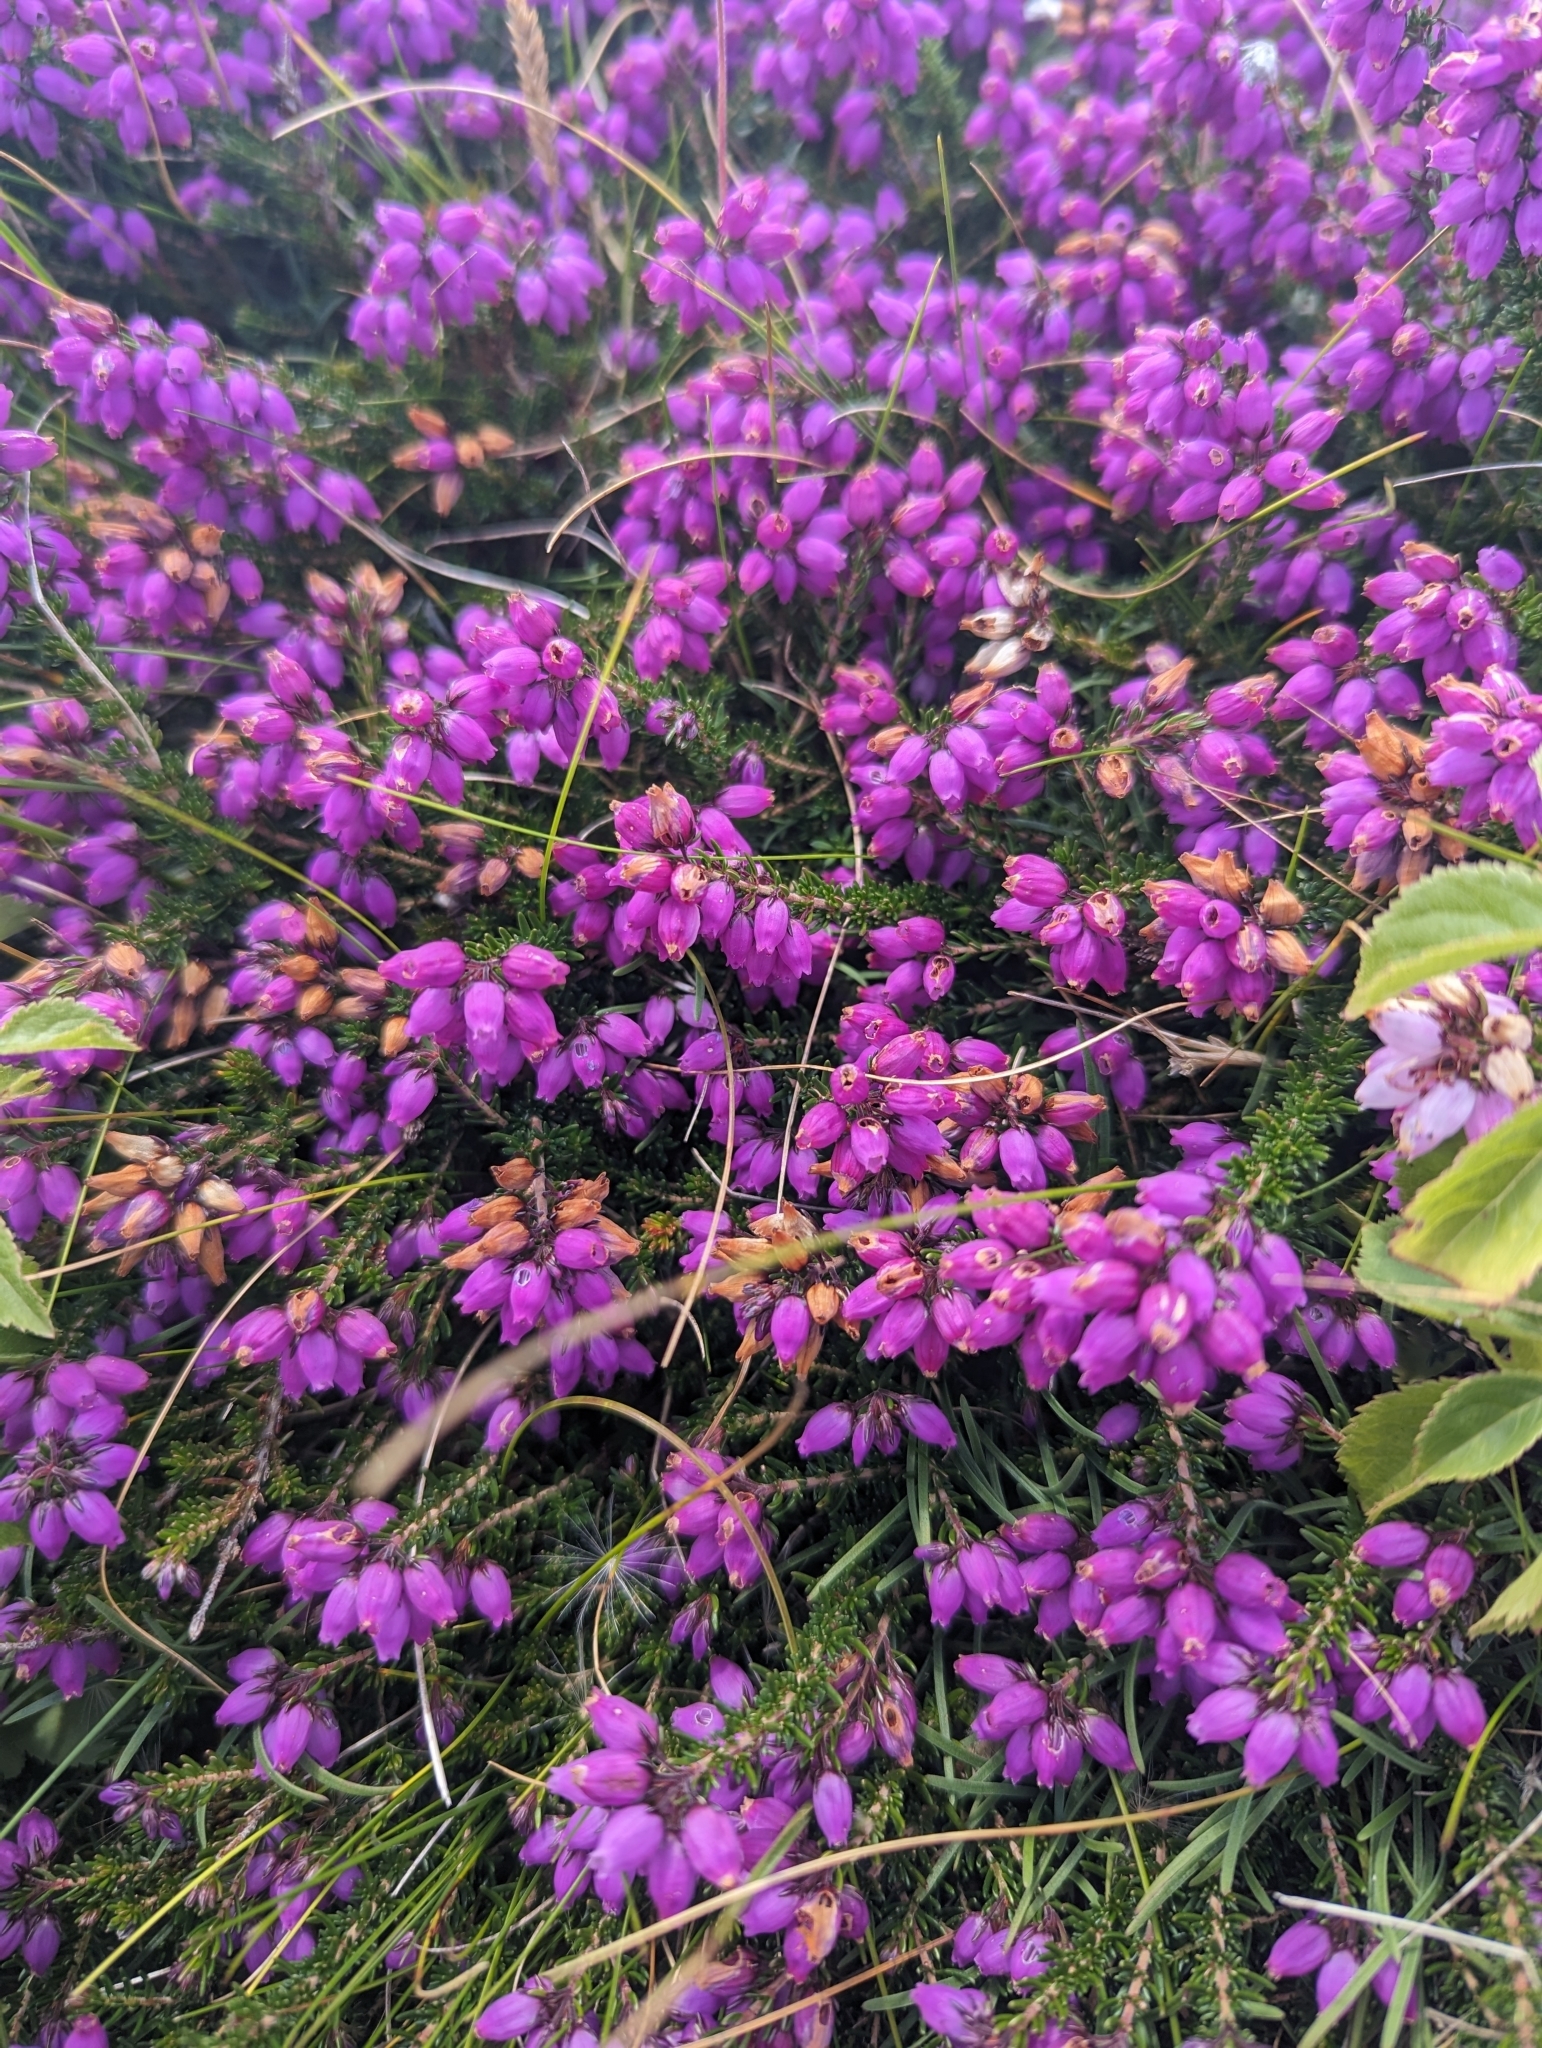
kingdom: Plantae
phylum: Tracheophyta
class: Magnoliopsida
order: Ericales
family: Ericaceae
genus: Erica
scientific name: Erica cinerea
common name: Bell heather
